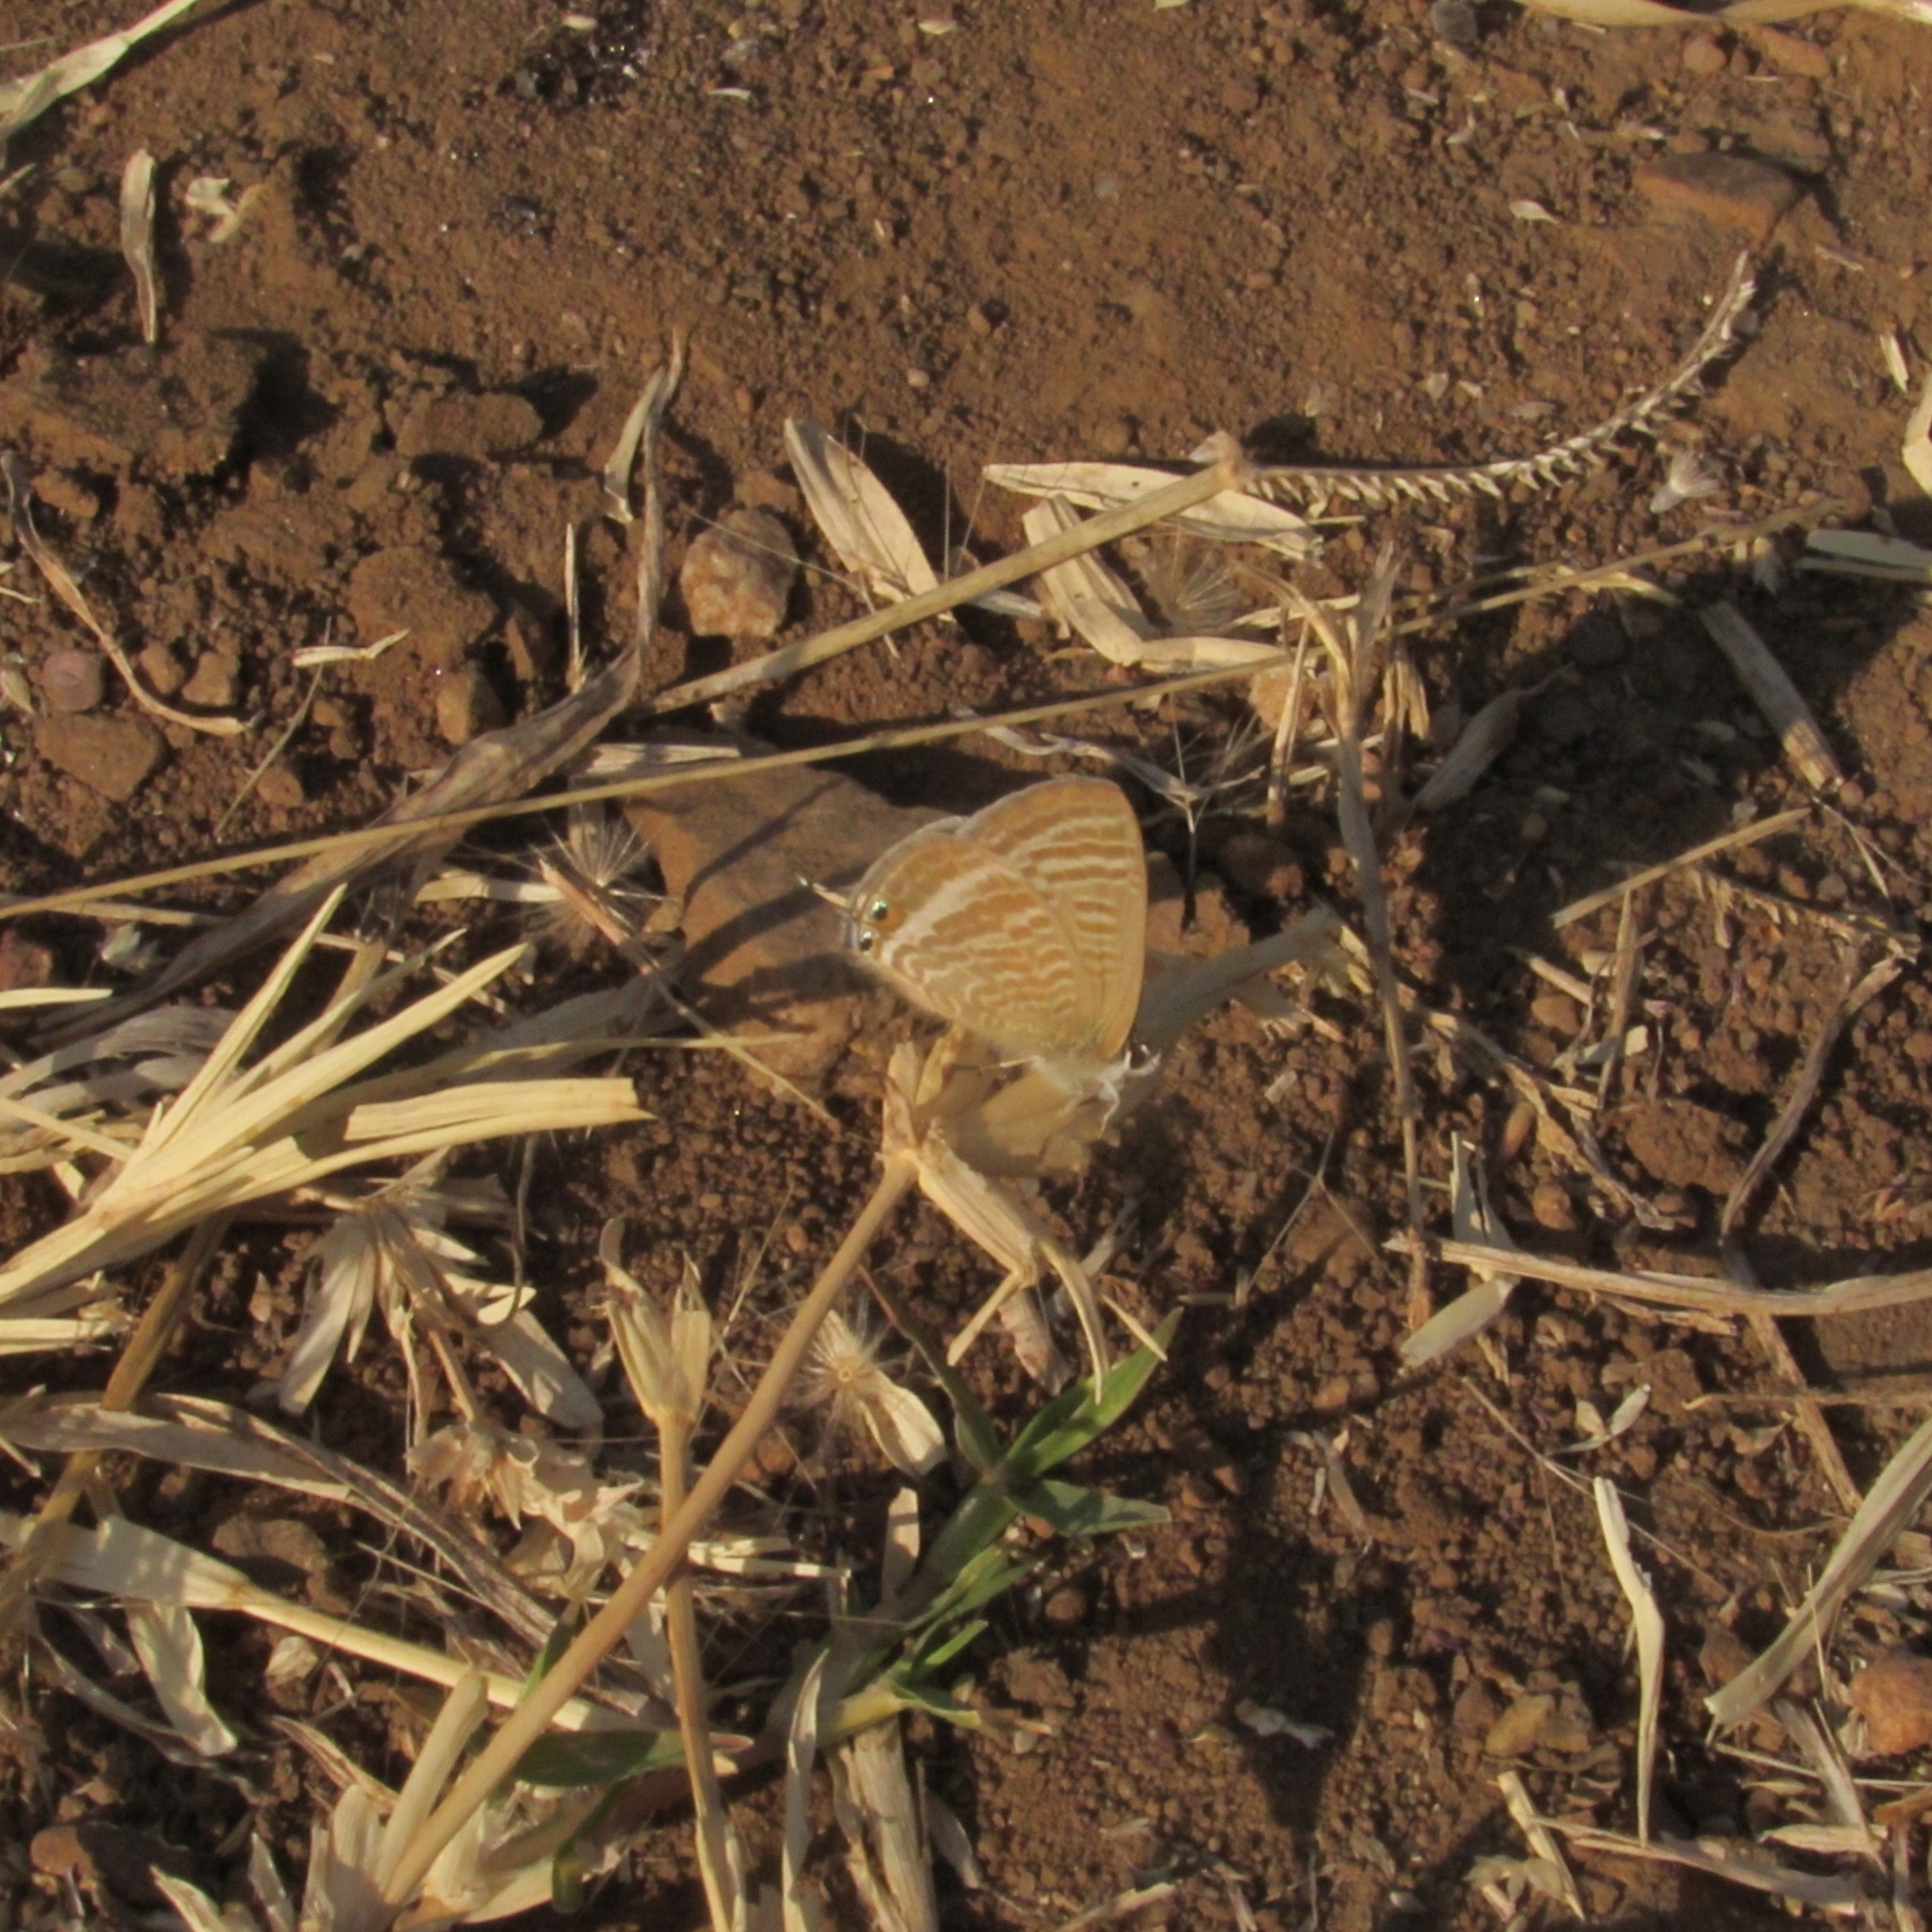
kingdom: Animalia
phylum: Arthropoda
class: Insecta
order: Lepidoptera
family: Lycaenidae
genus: Lampides
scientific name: Lampides boeticus
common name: Long-tailed blue
